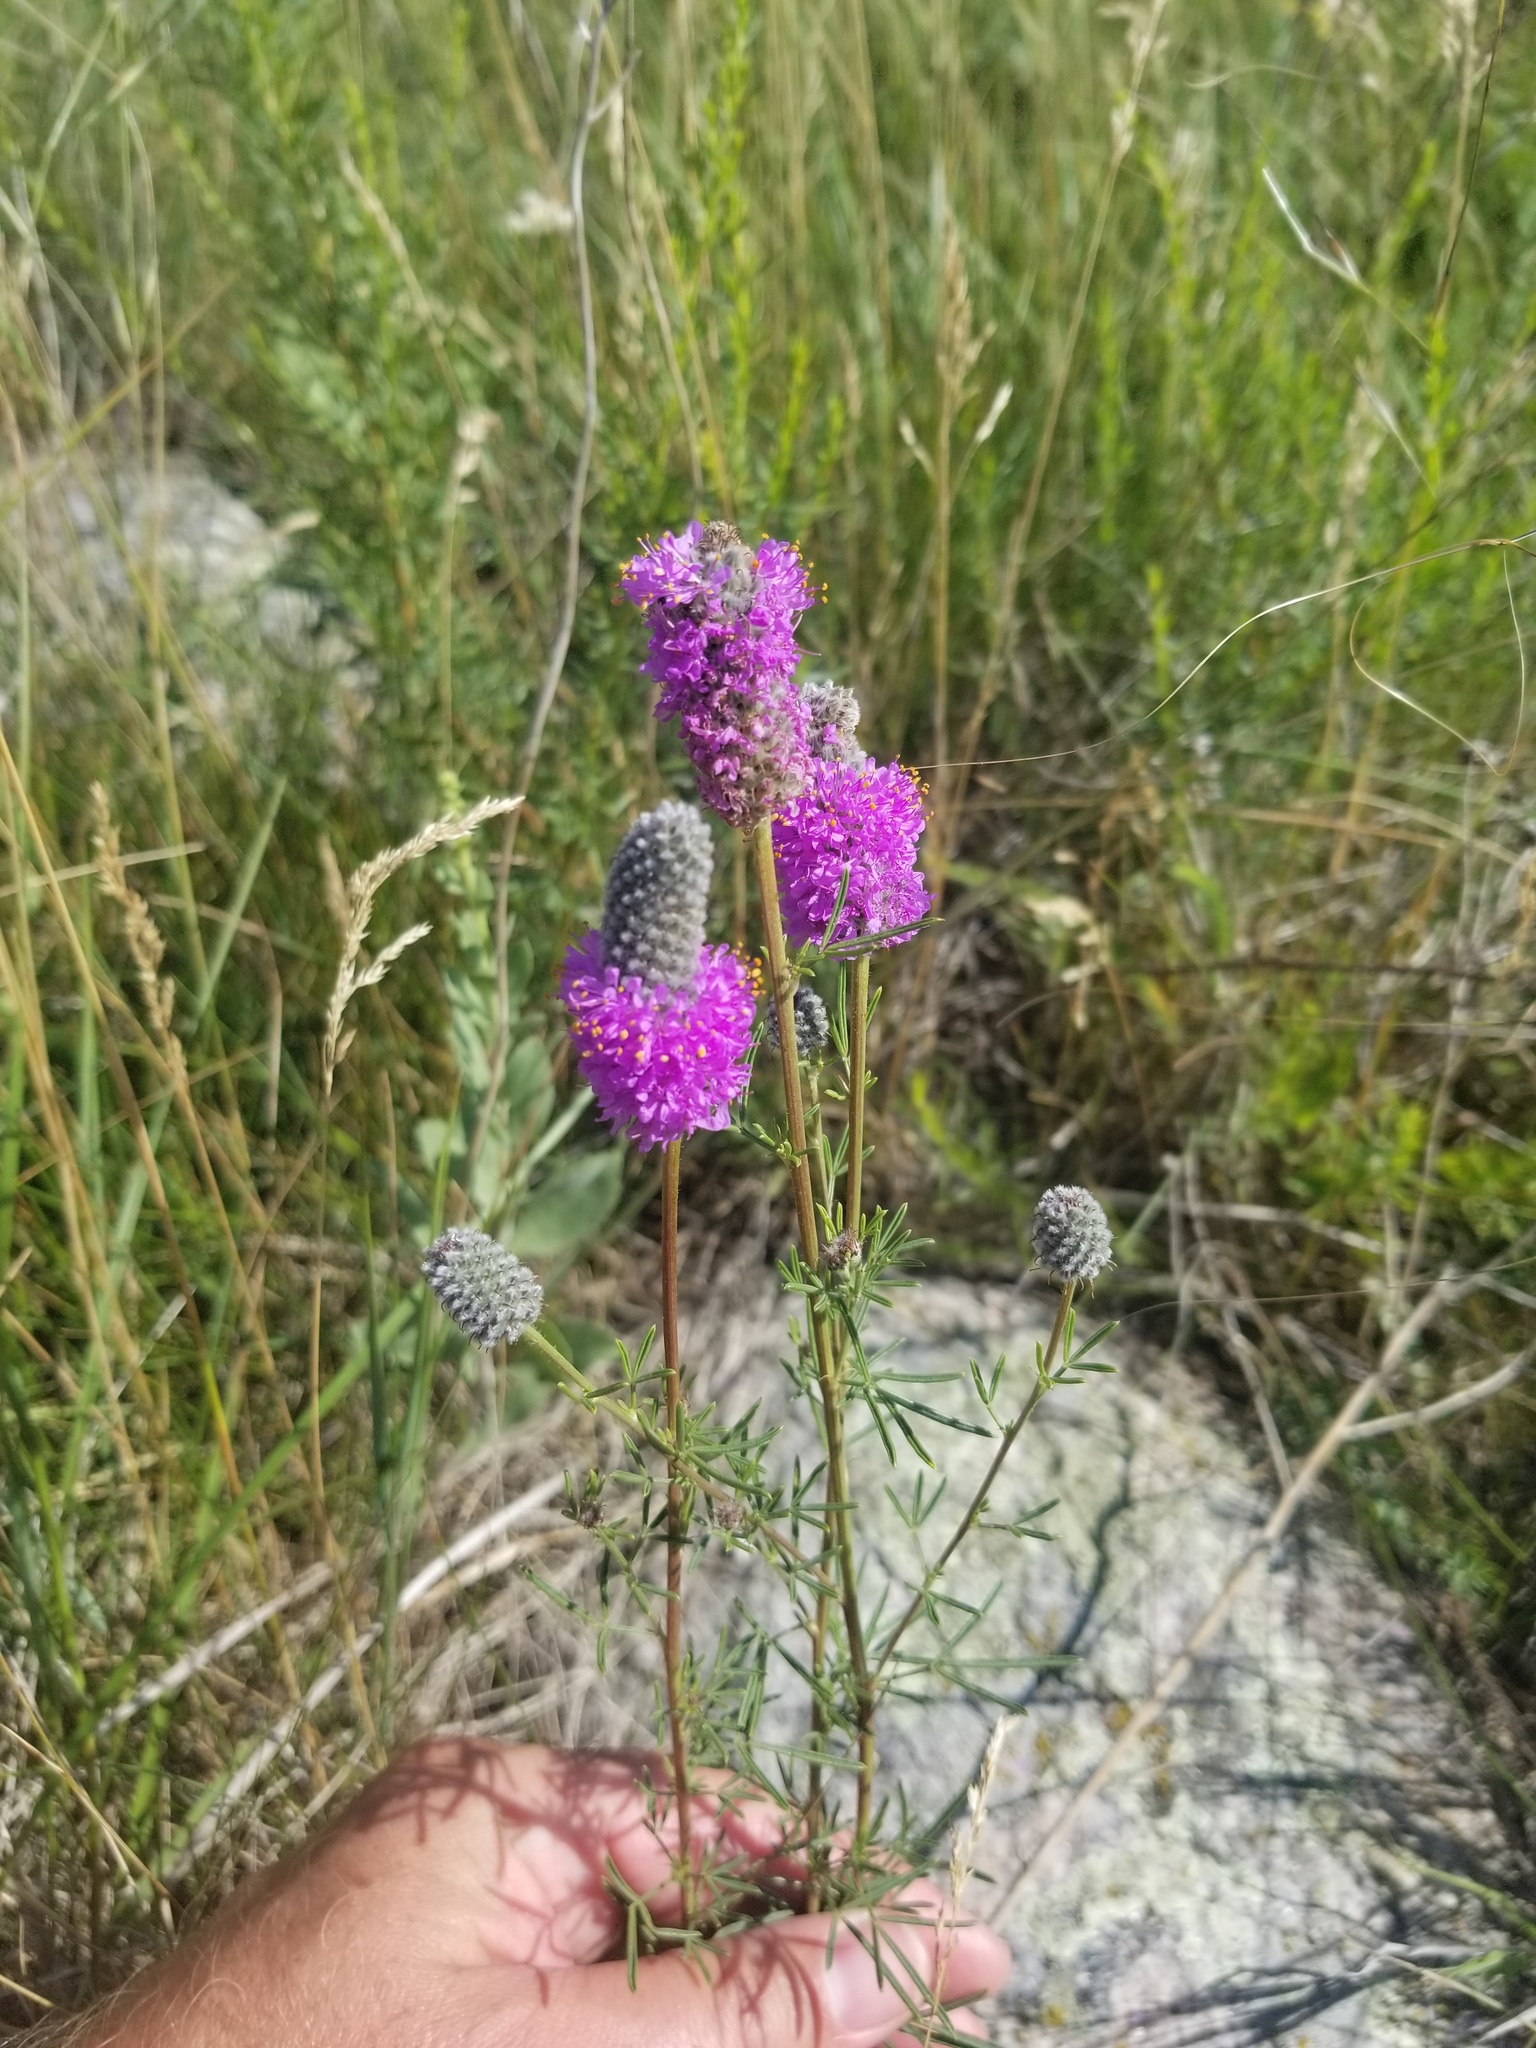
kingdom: Plantae
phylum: Tracheophyta
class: Magnoliopsida
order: Fabales
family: Fabaceae
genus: Dalea
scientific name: Dalea purpurea
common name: Purple prairie-clover
